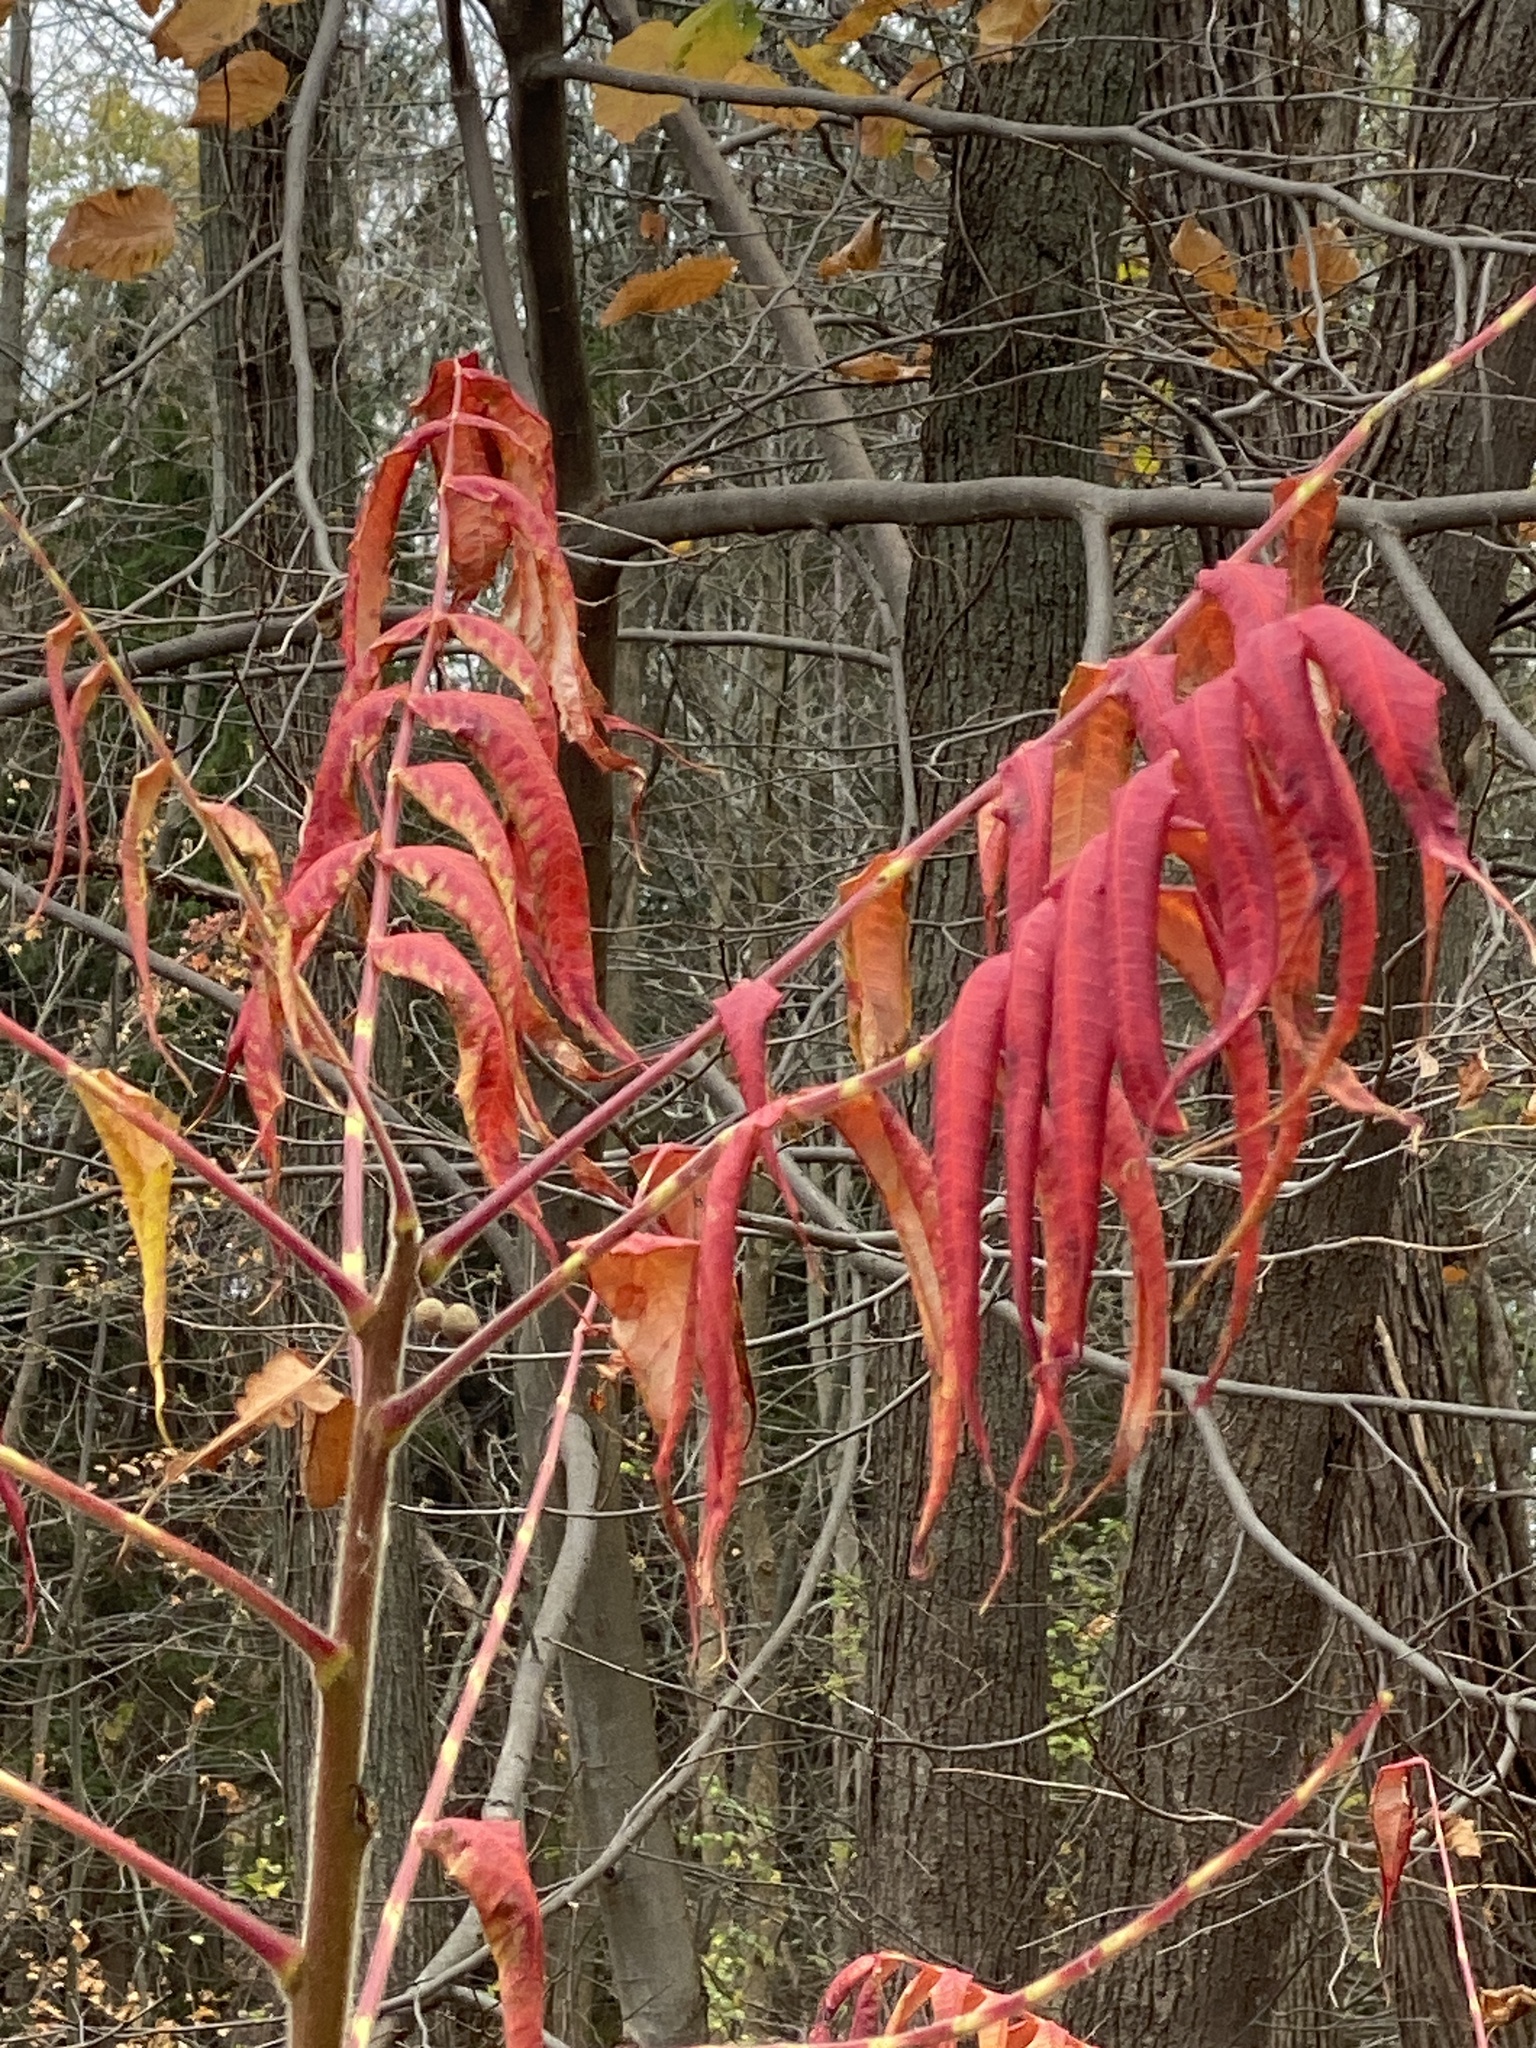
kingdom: Plantae
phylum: Tracheophyta
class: Magnoliopsida
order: Sapindales
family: Anacardiaceae
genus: Rhus
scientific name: Rhus typhina
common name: Staghorn sumac
